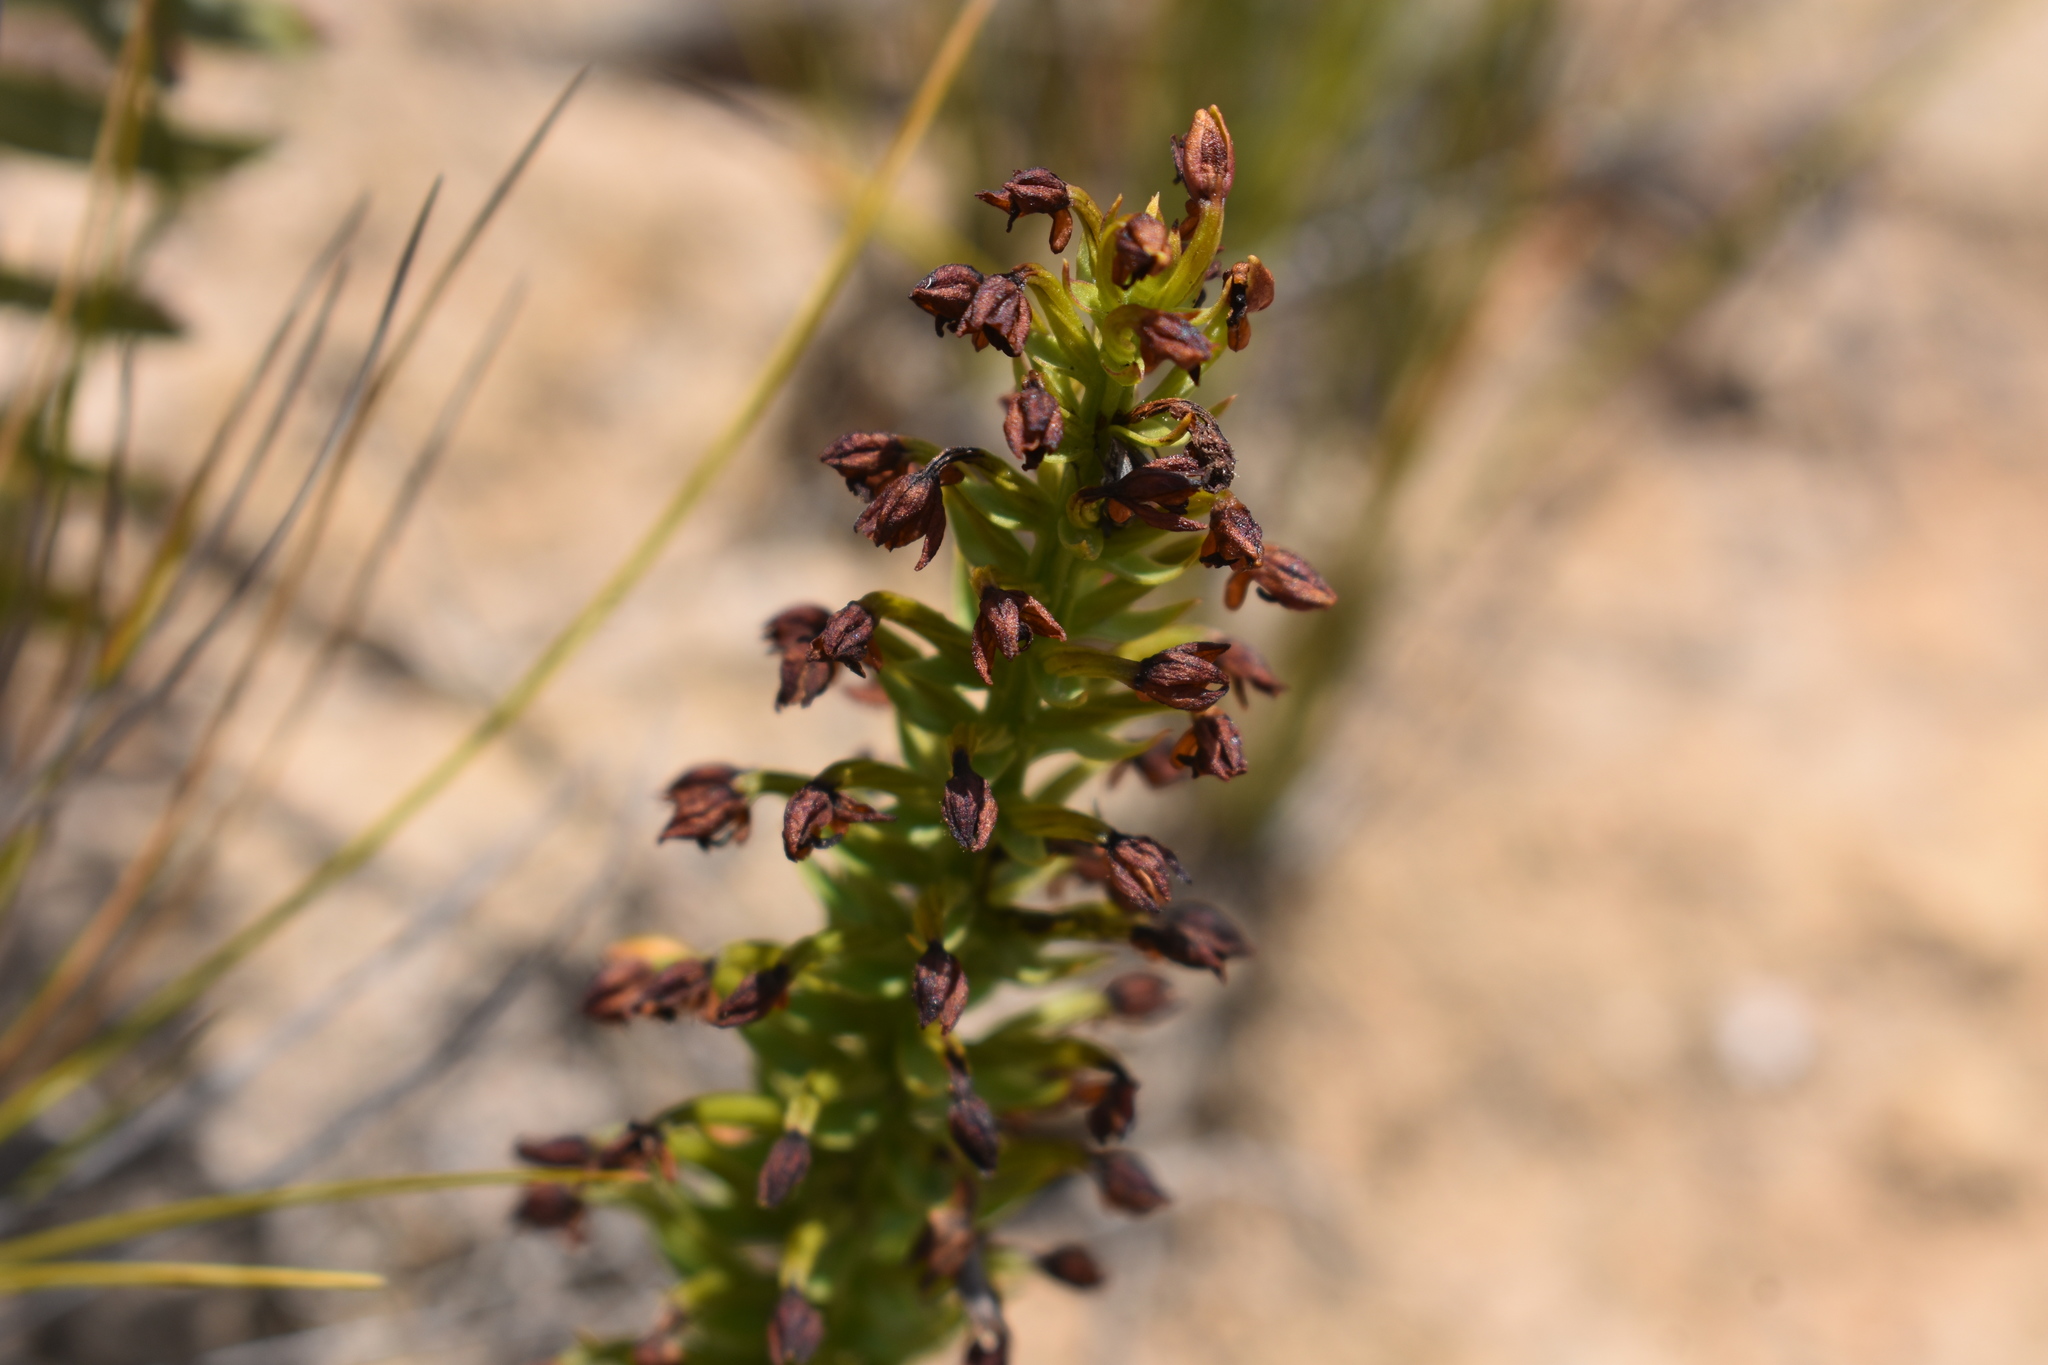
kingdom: Plantae
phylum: Tracheophyta
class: Liliopsida
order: Asparagales
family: Orchidaceae
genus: Brachycorythis
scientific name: Brachycorythis mac-owaniana
